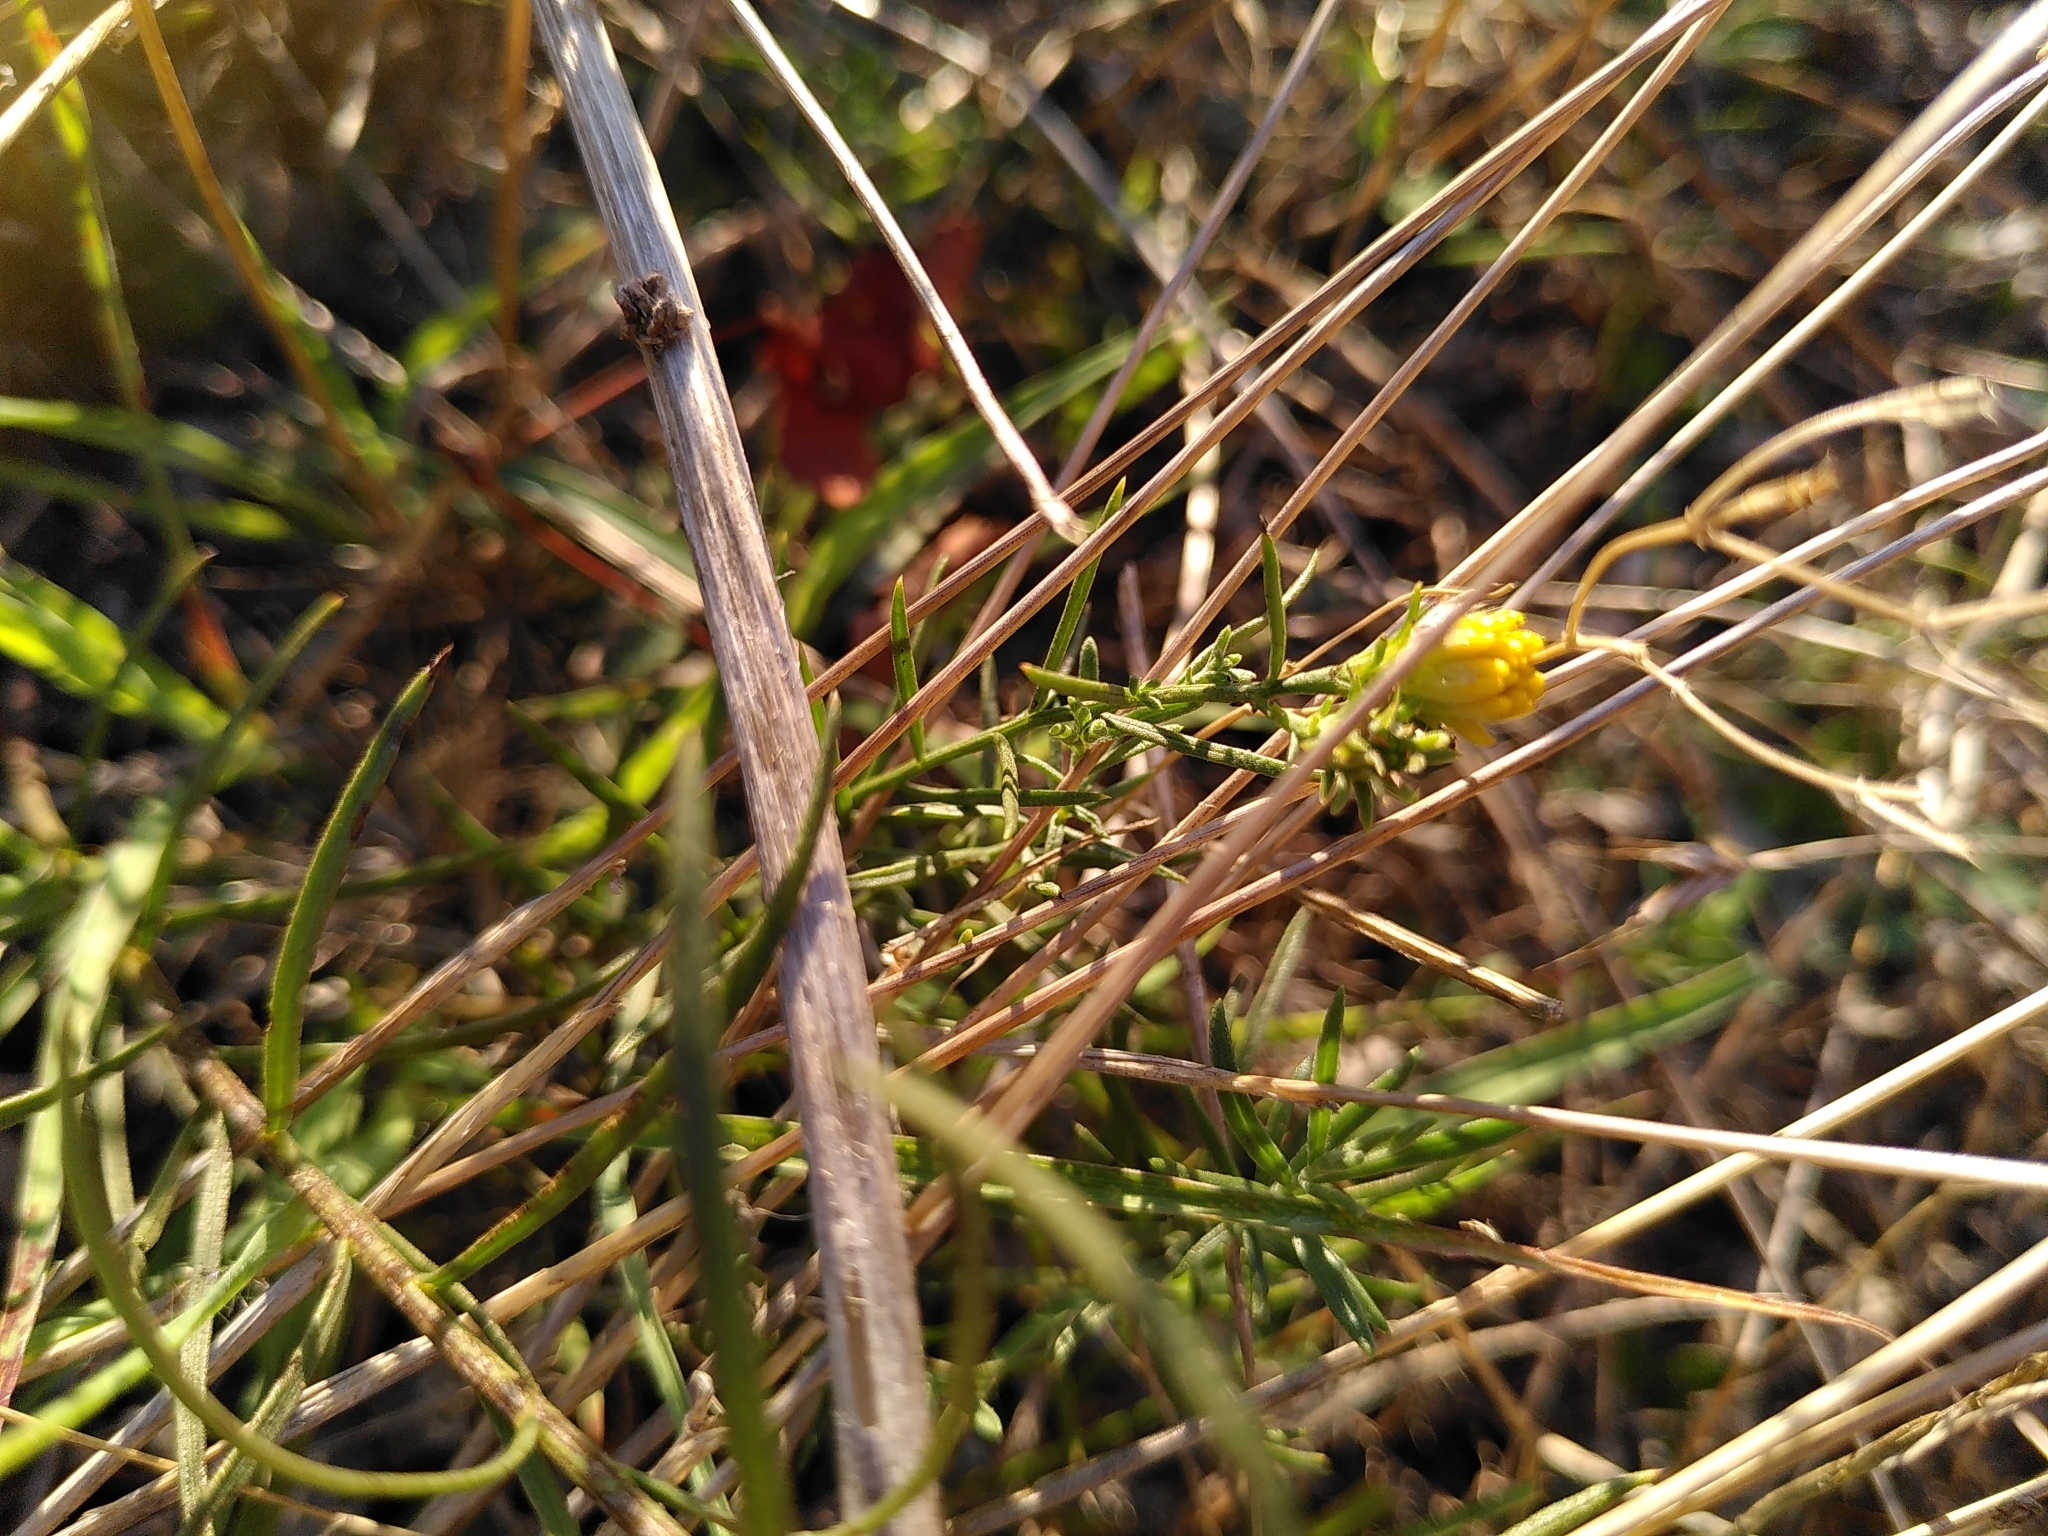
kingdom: Plantae
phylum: Tracheophyta
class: Magnoliopsida
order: Asterales
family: Asteraceae
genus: Galatella
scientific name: Galatella linosyris
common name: Goldilocks aster
